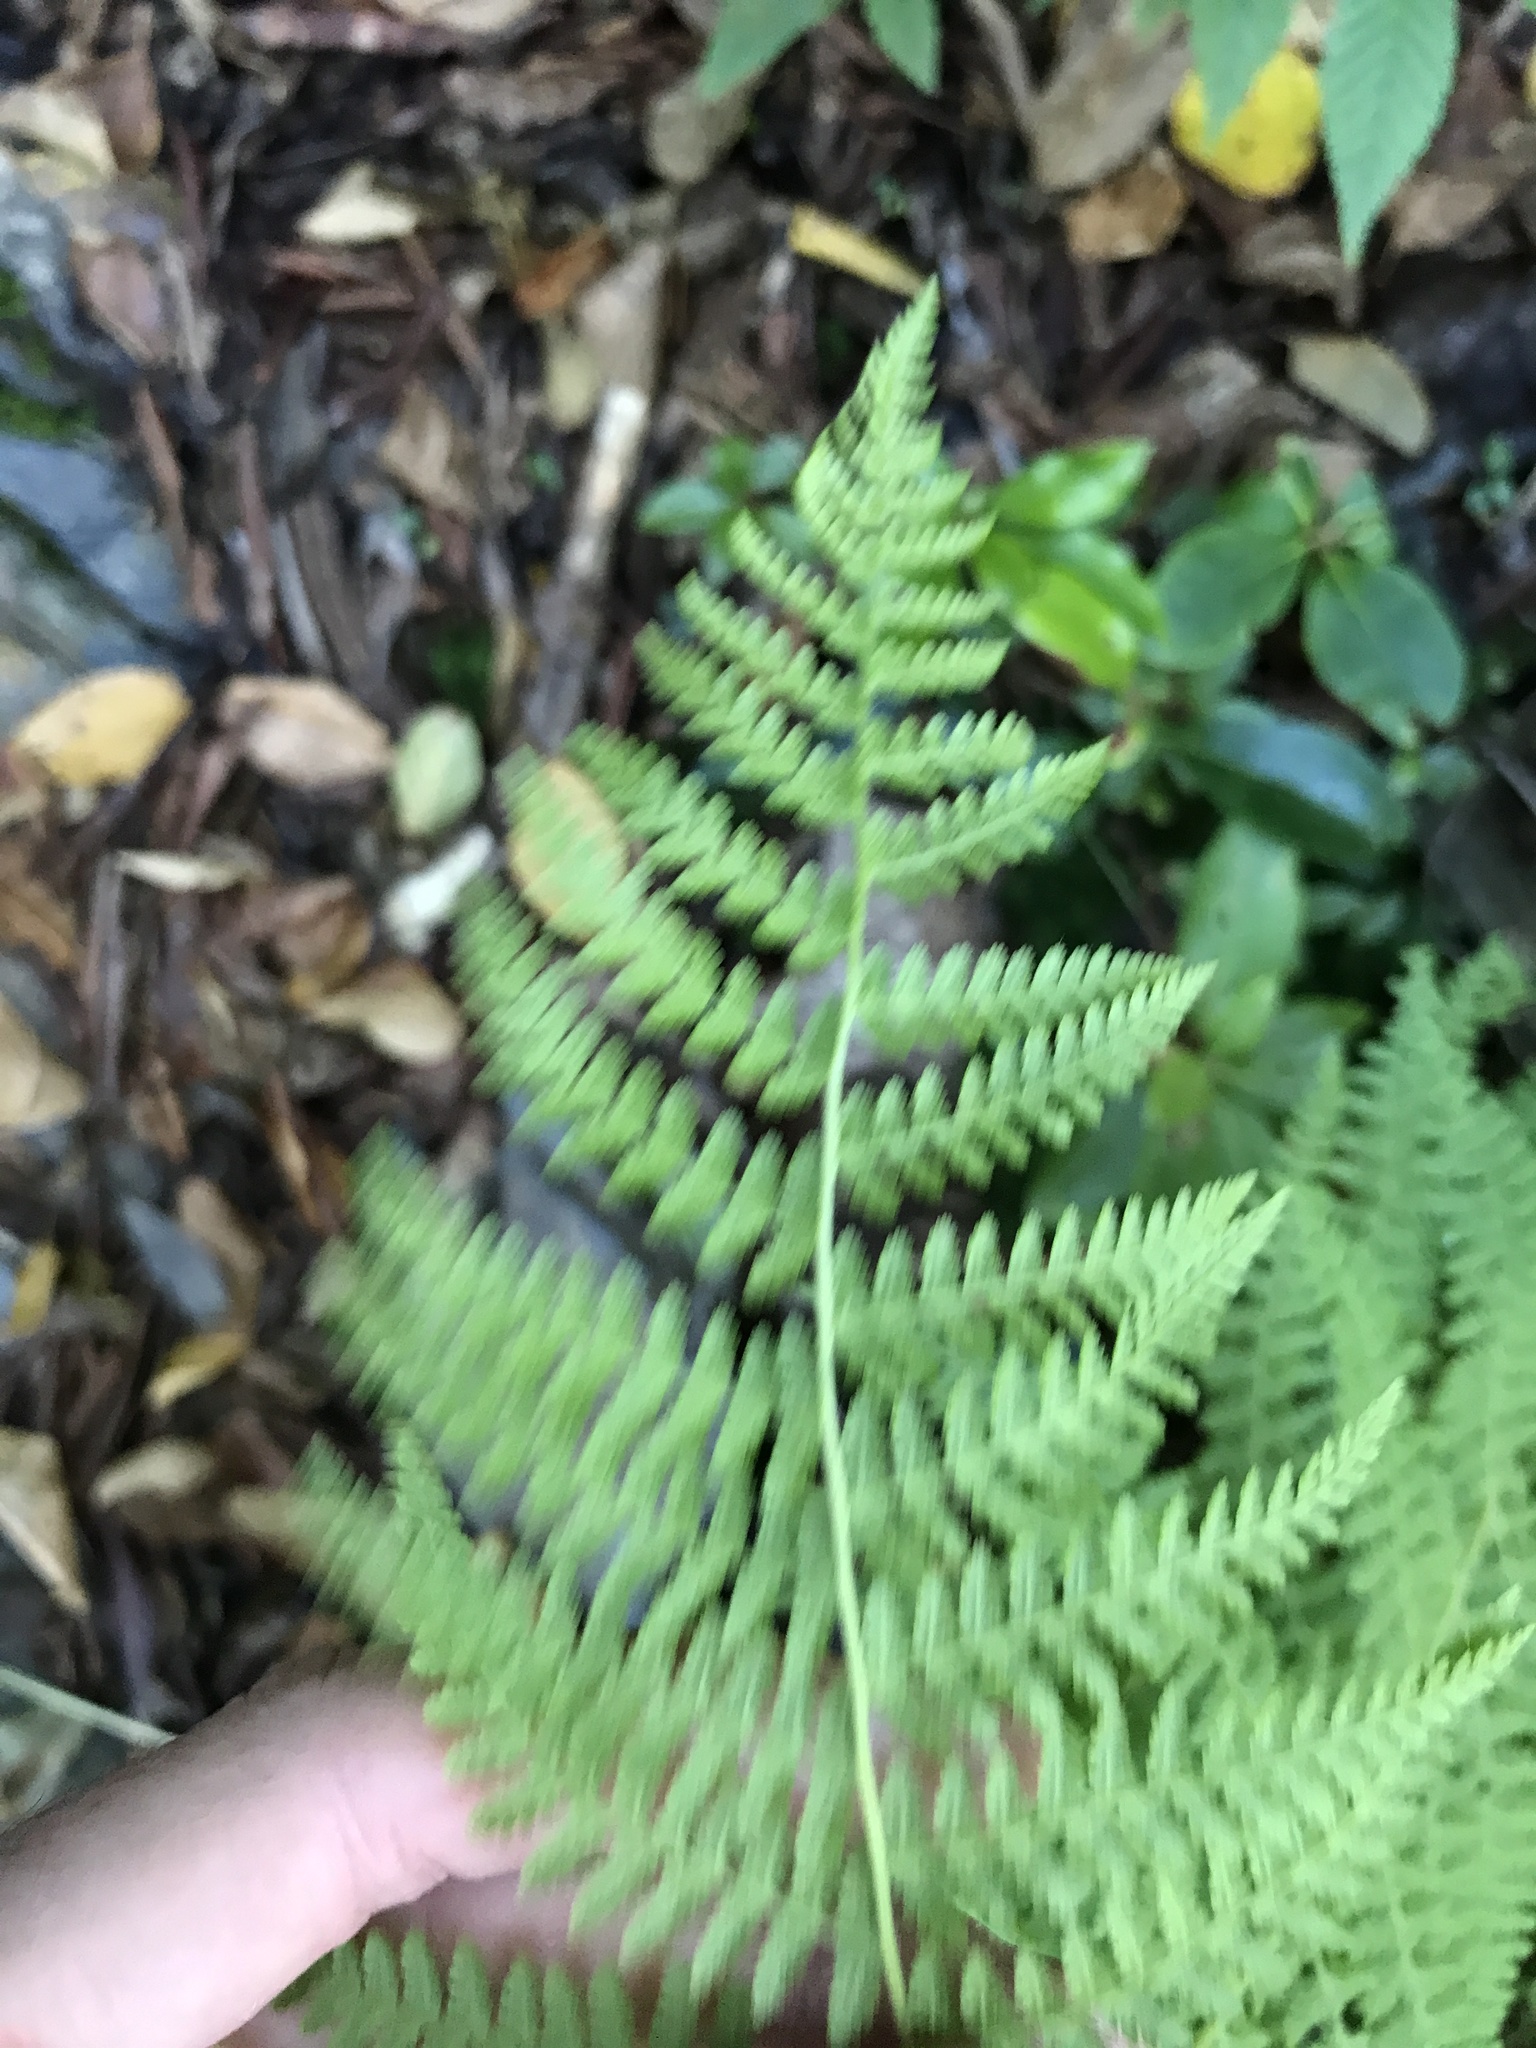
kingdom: Plantae
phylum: Tracheophyta
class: Polypodiopsida
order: Polypodiales
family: Dennstaedtiaceae
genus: Sitobolium
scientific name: Sitobolium punctilobum
